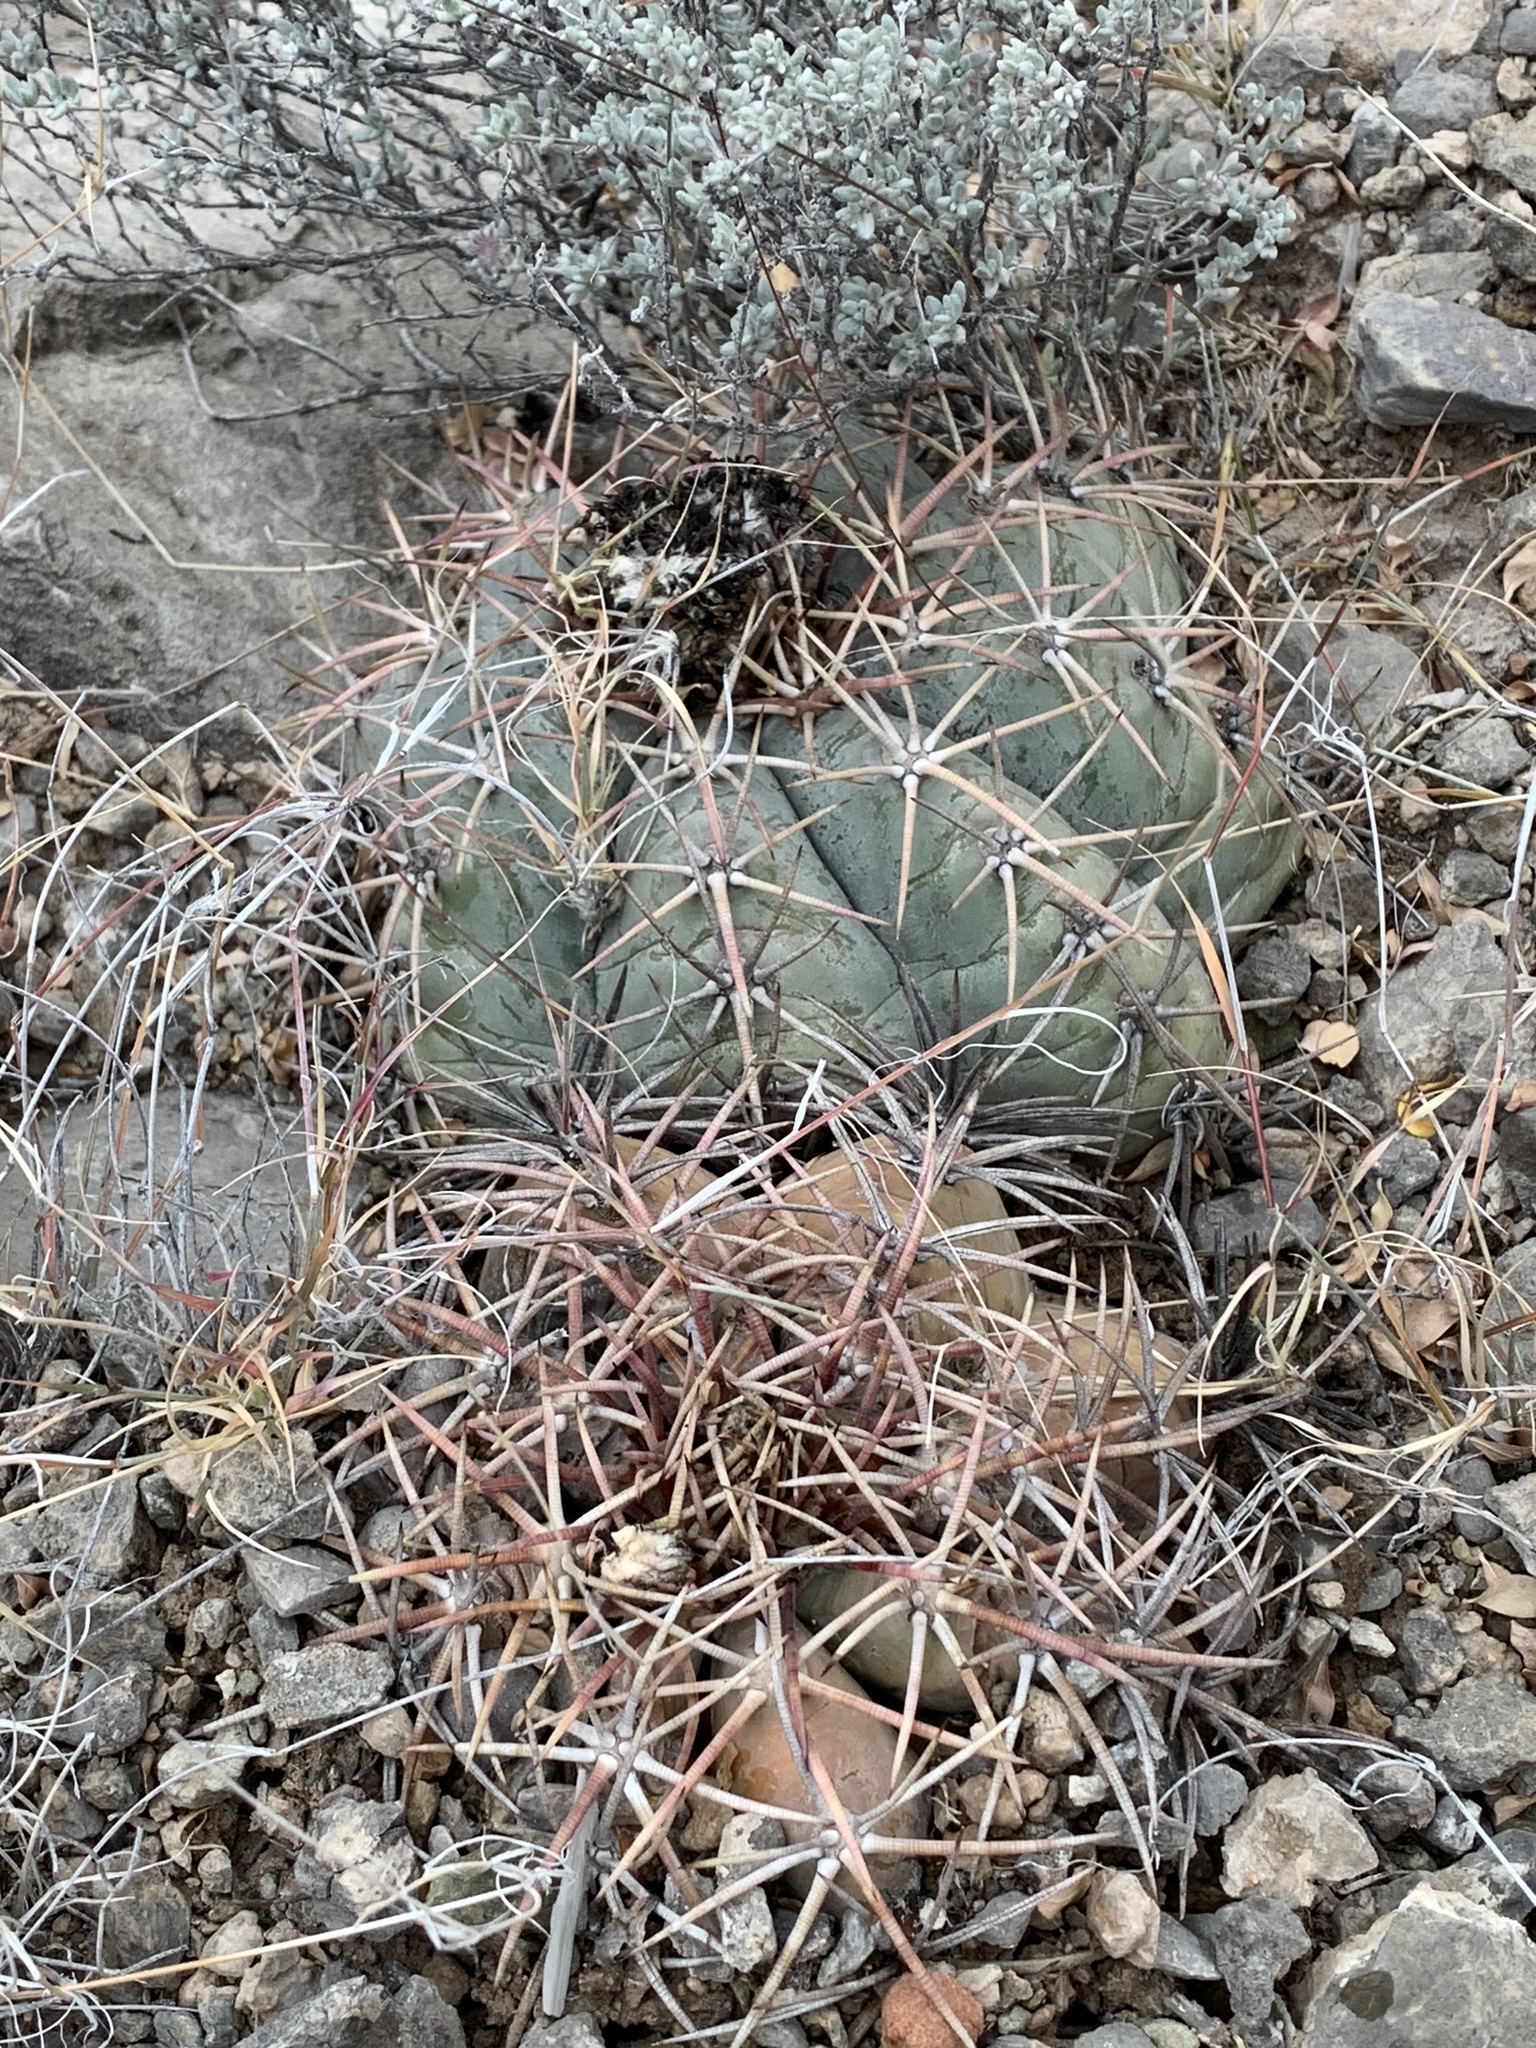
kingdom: Plantae
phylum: Tracheophyta
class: Magnoliopsida
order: Caryophyllales
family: Cactaceae
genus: Echinocactus
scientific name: Echinocactus horizonthalonius
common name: Devilshead
